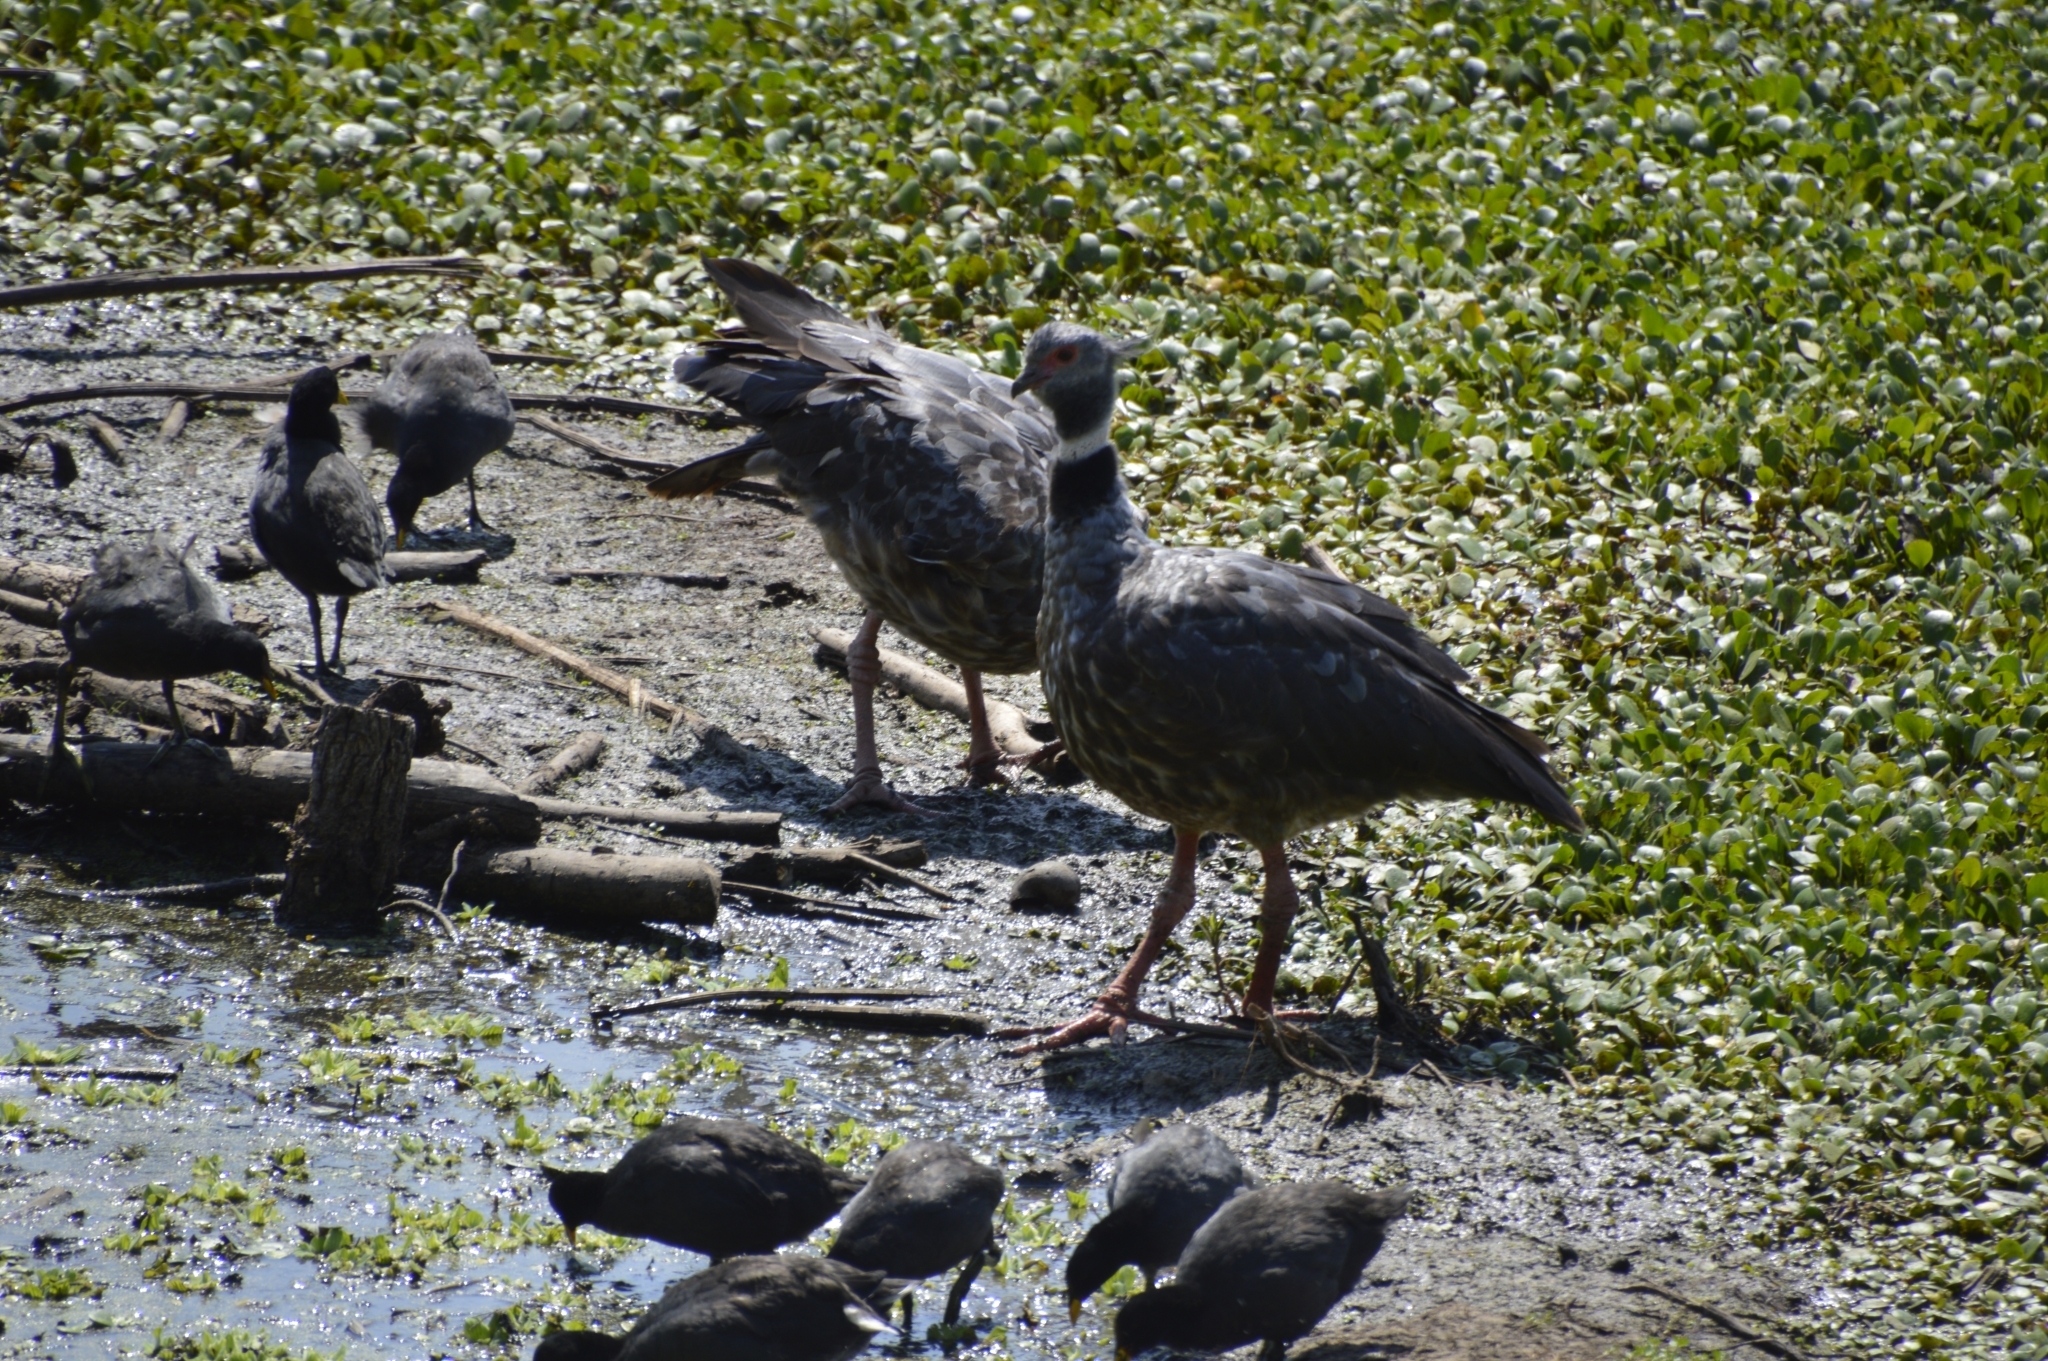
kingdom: Animalia
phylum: Chordata
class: Aves
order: Anseriformes
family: Anhimidae
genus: Chauna
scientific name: Chauna torquata
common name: Southern screamer
